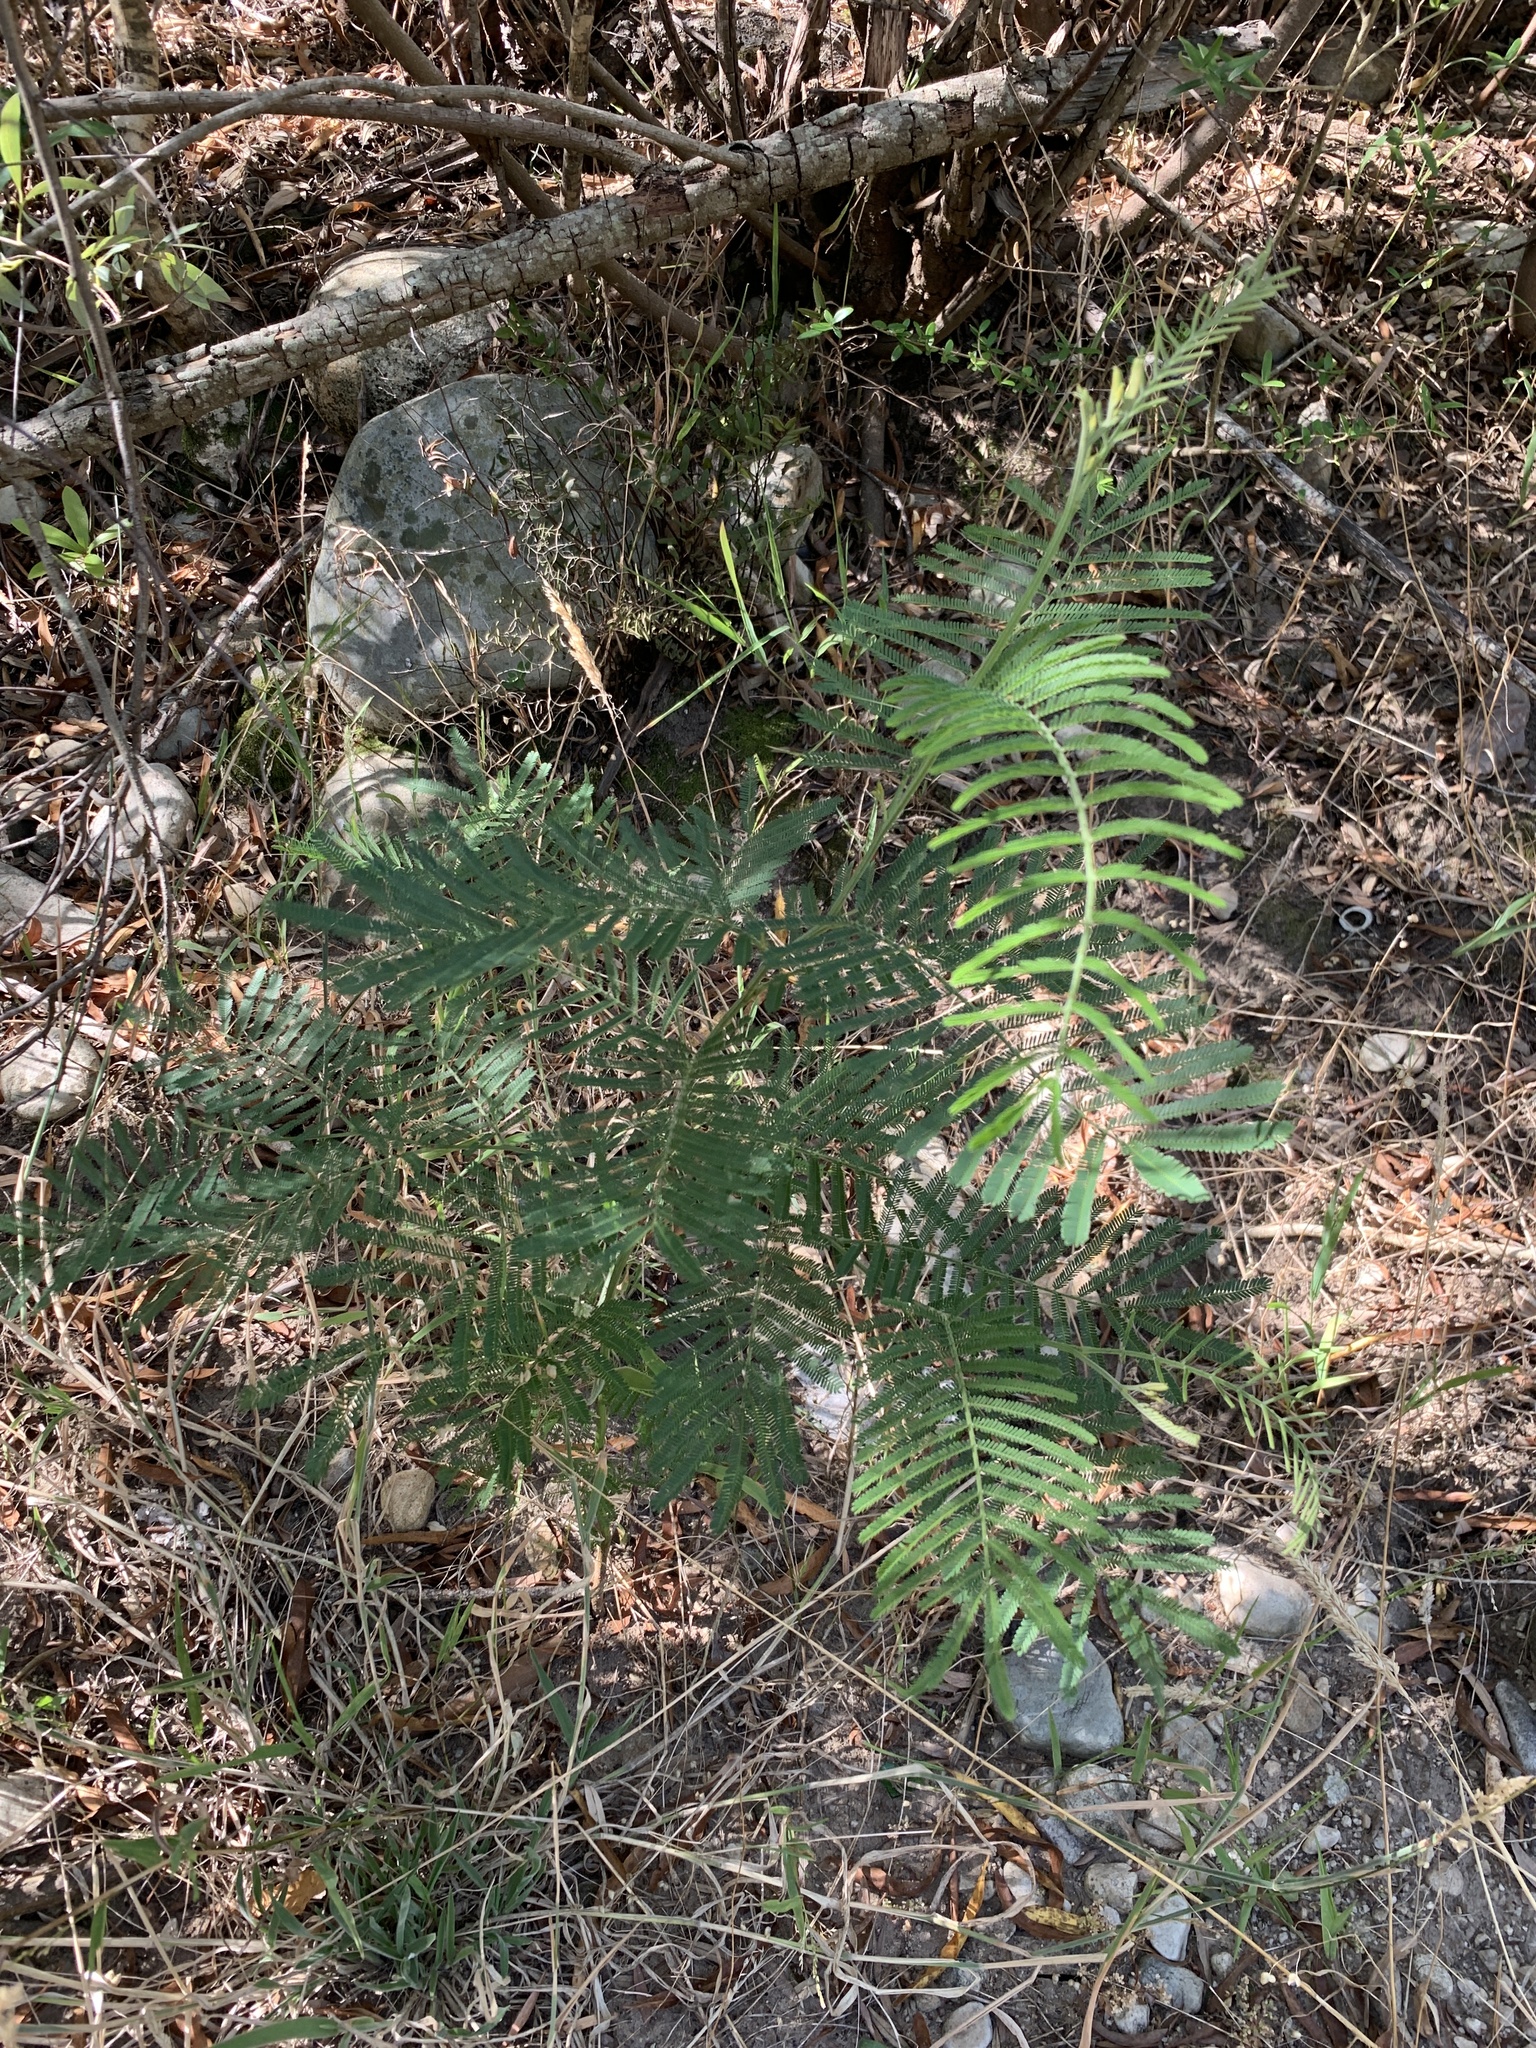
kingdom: Plantae
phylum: Tracheophyta
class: Magnoliopsida
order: Fabales
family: Fabaceae
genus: Acacia
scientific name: Acacia mearnsii
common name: Black wattle
